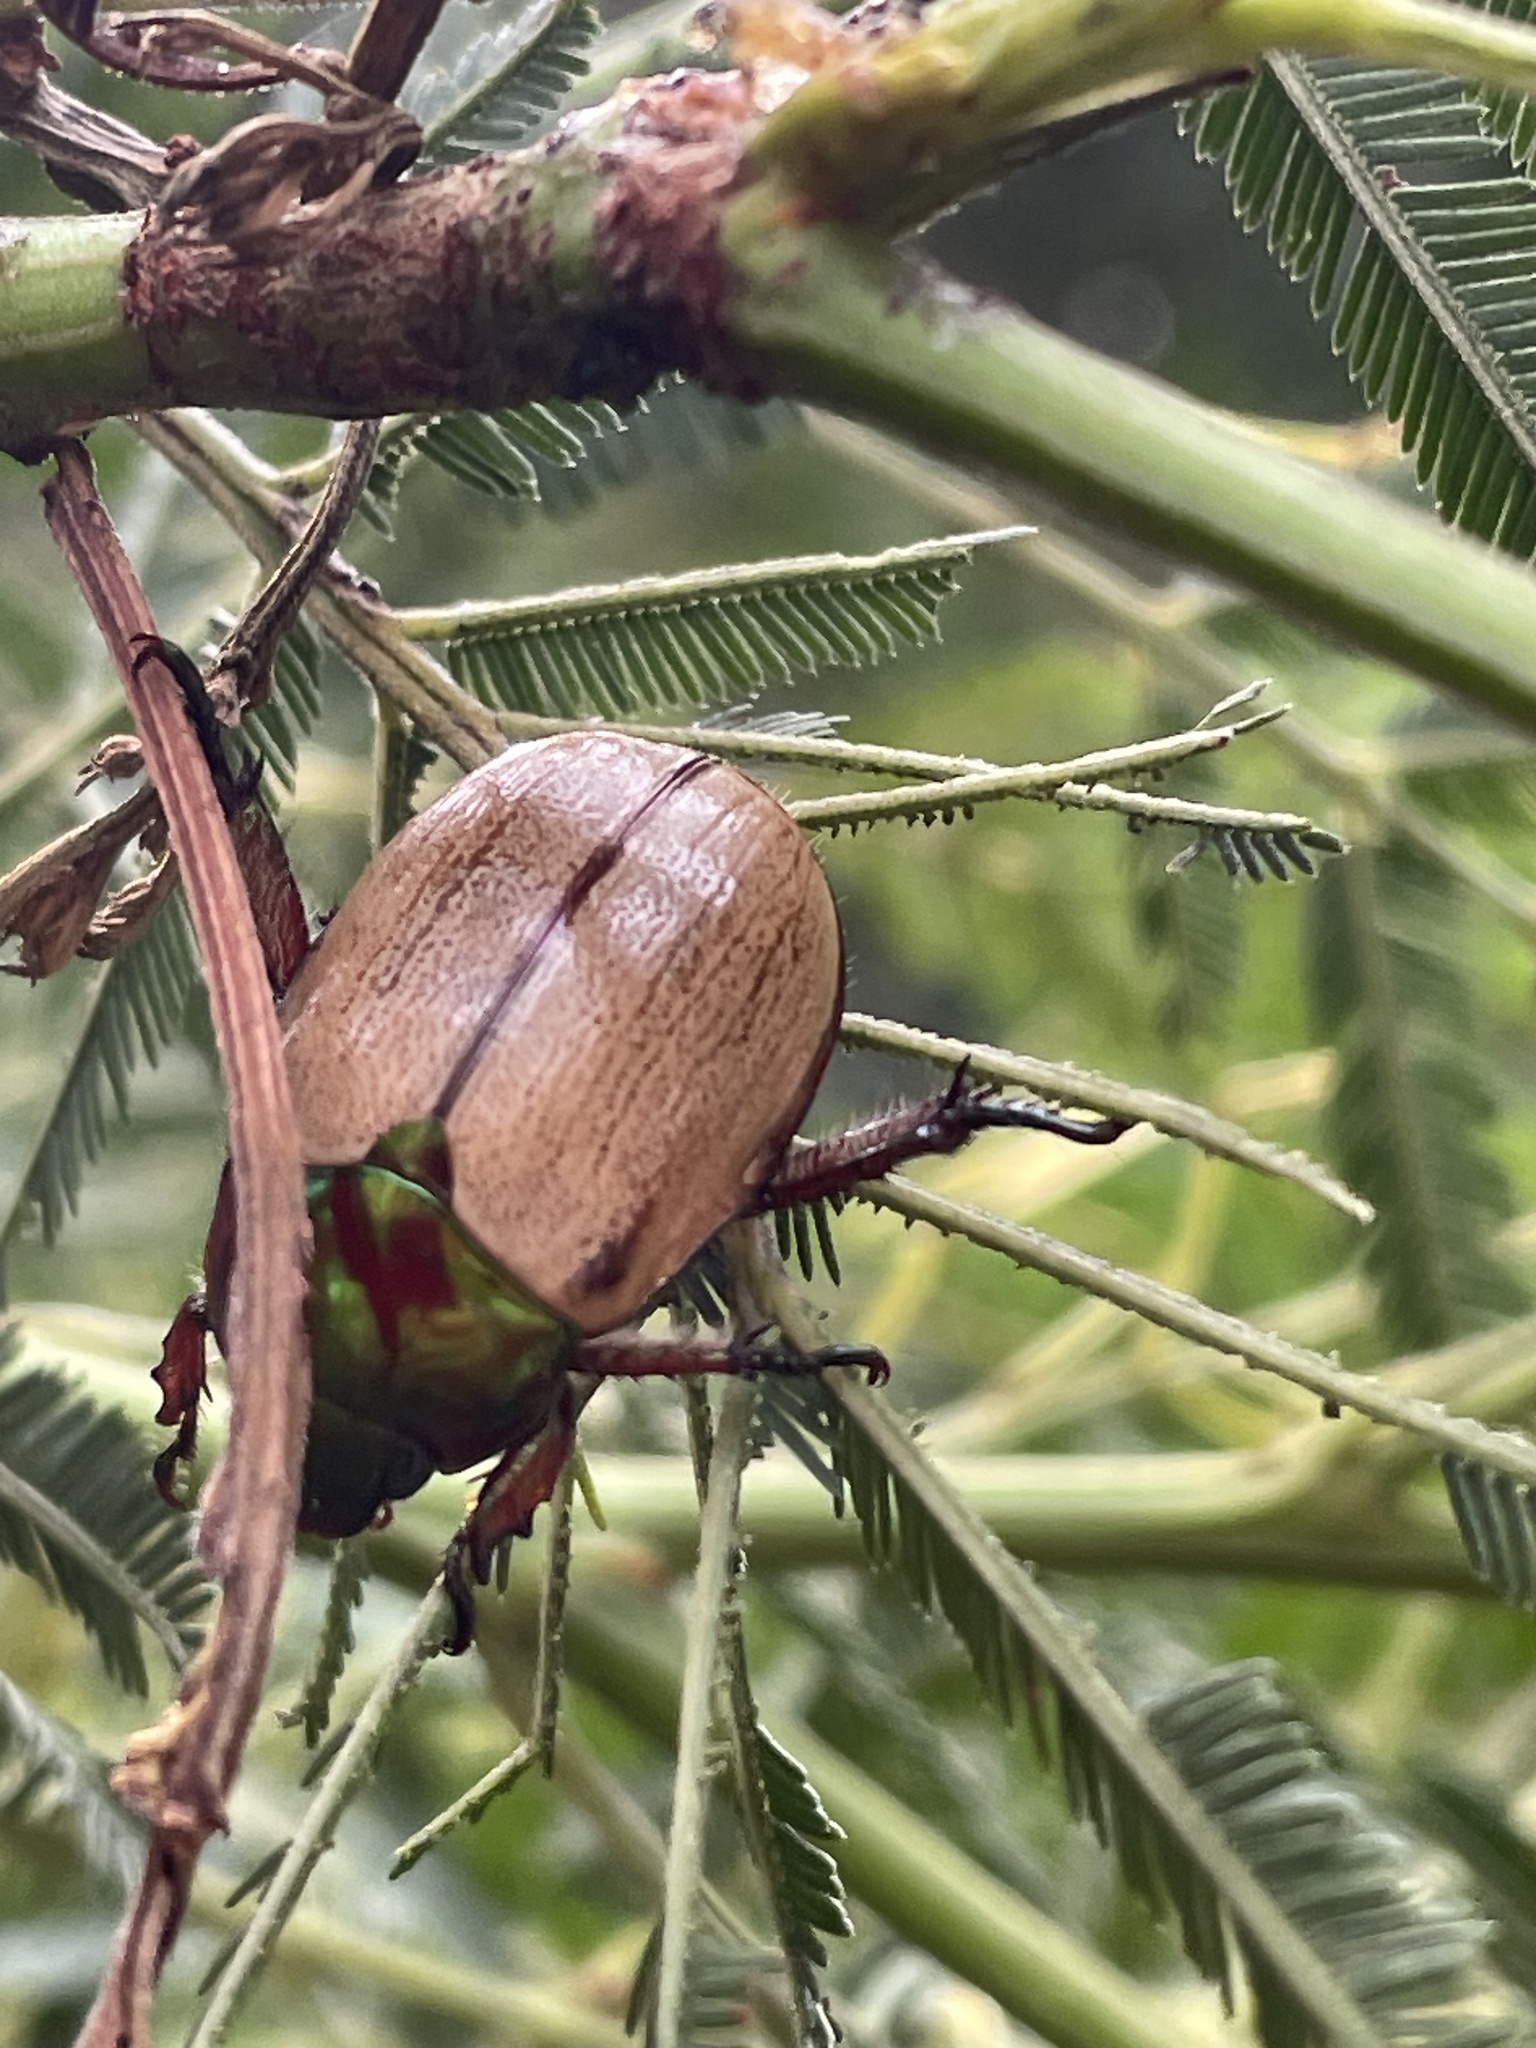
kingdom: Animalia
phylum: Arthropoda
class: Insecta
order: Coleoptera
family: Scarabaeidae
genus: Anoplognathus
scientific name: Anoplognathus flavipennis
